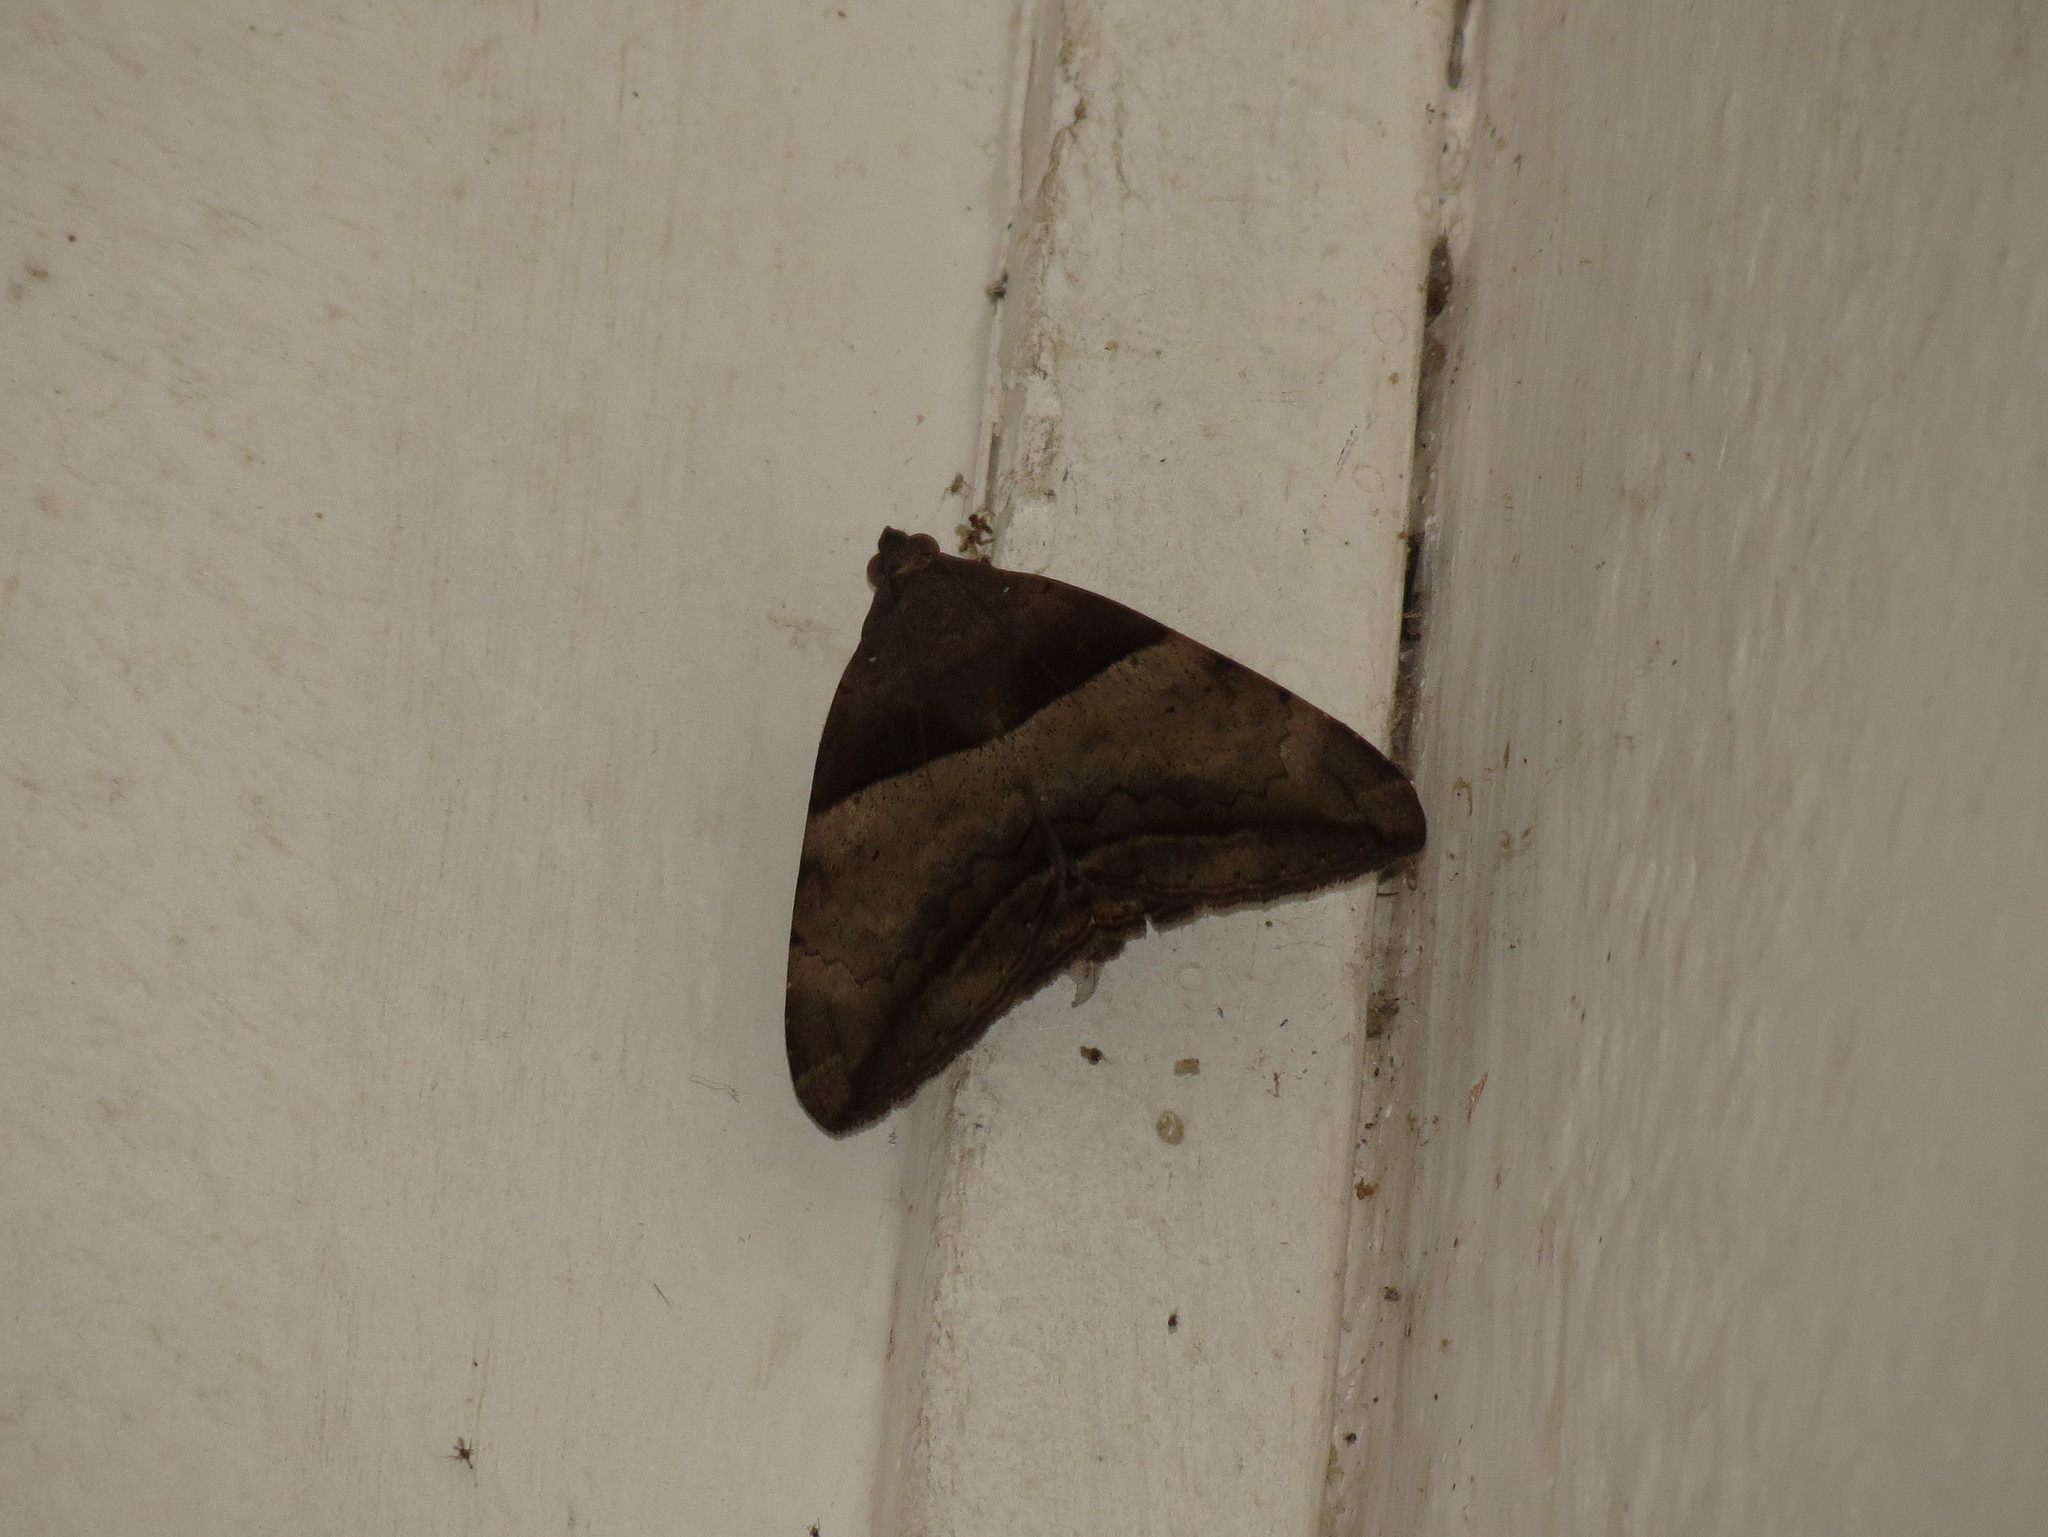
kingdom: Animalia
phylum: Arthropoda
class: Insecta
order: Lepidoptera
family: Erebidae
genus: Achaea
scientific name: Achaea lienardi
